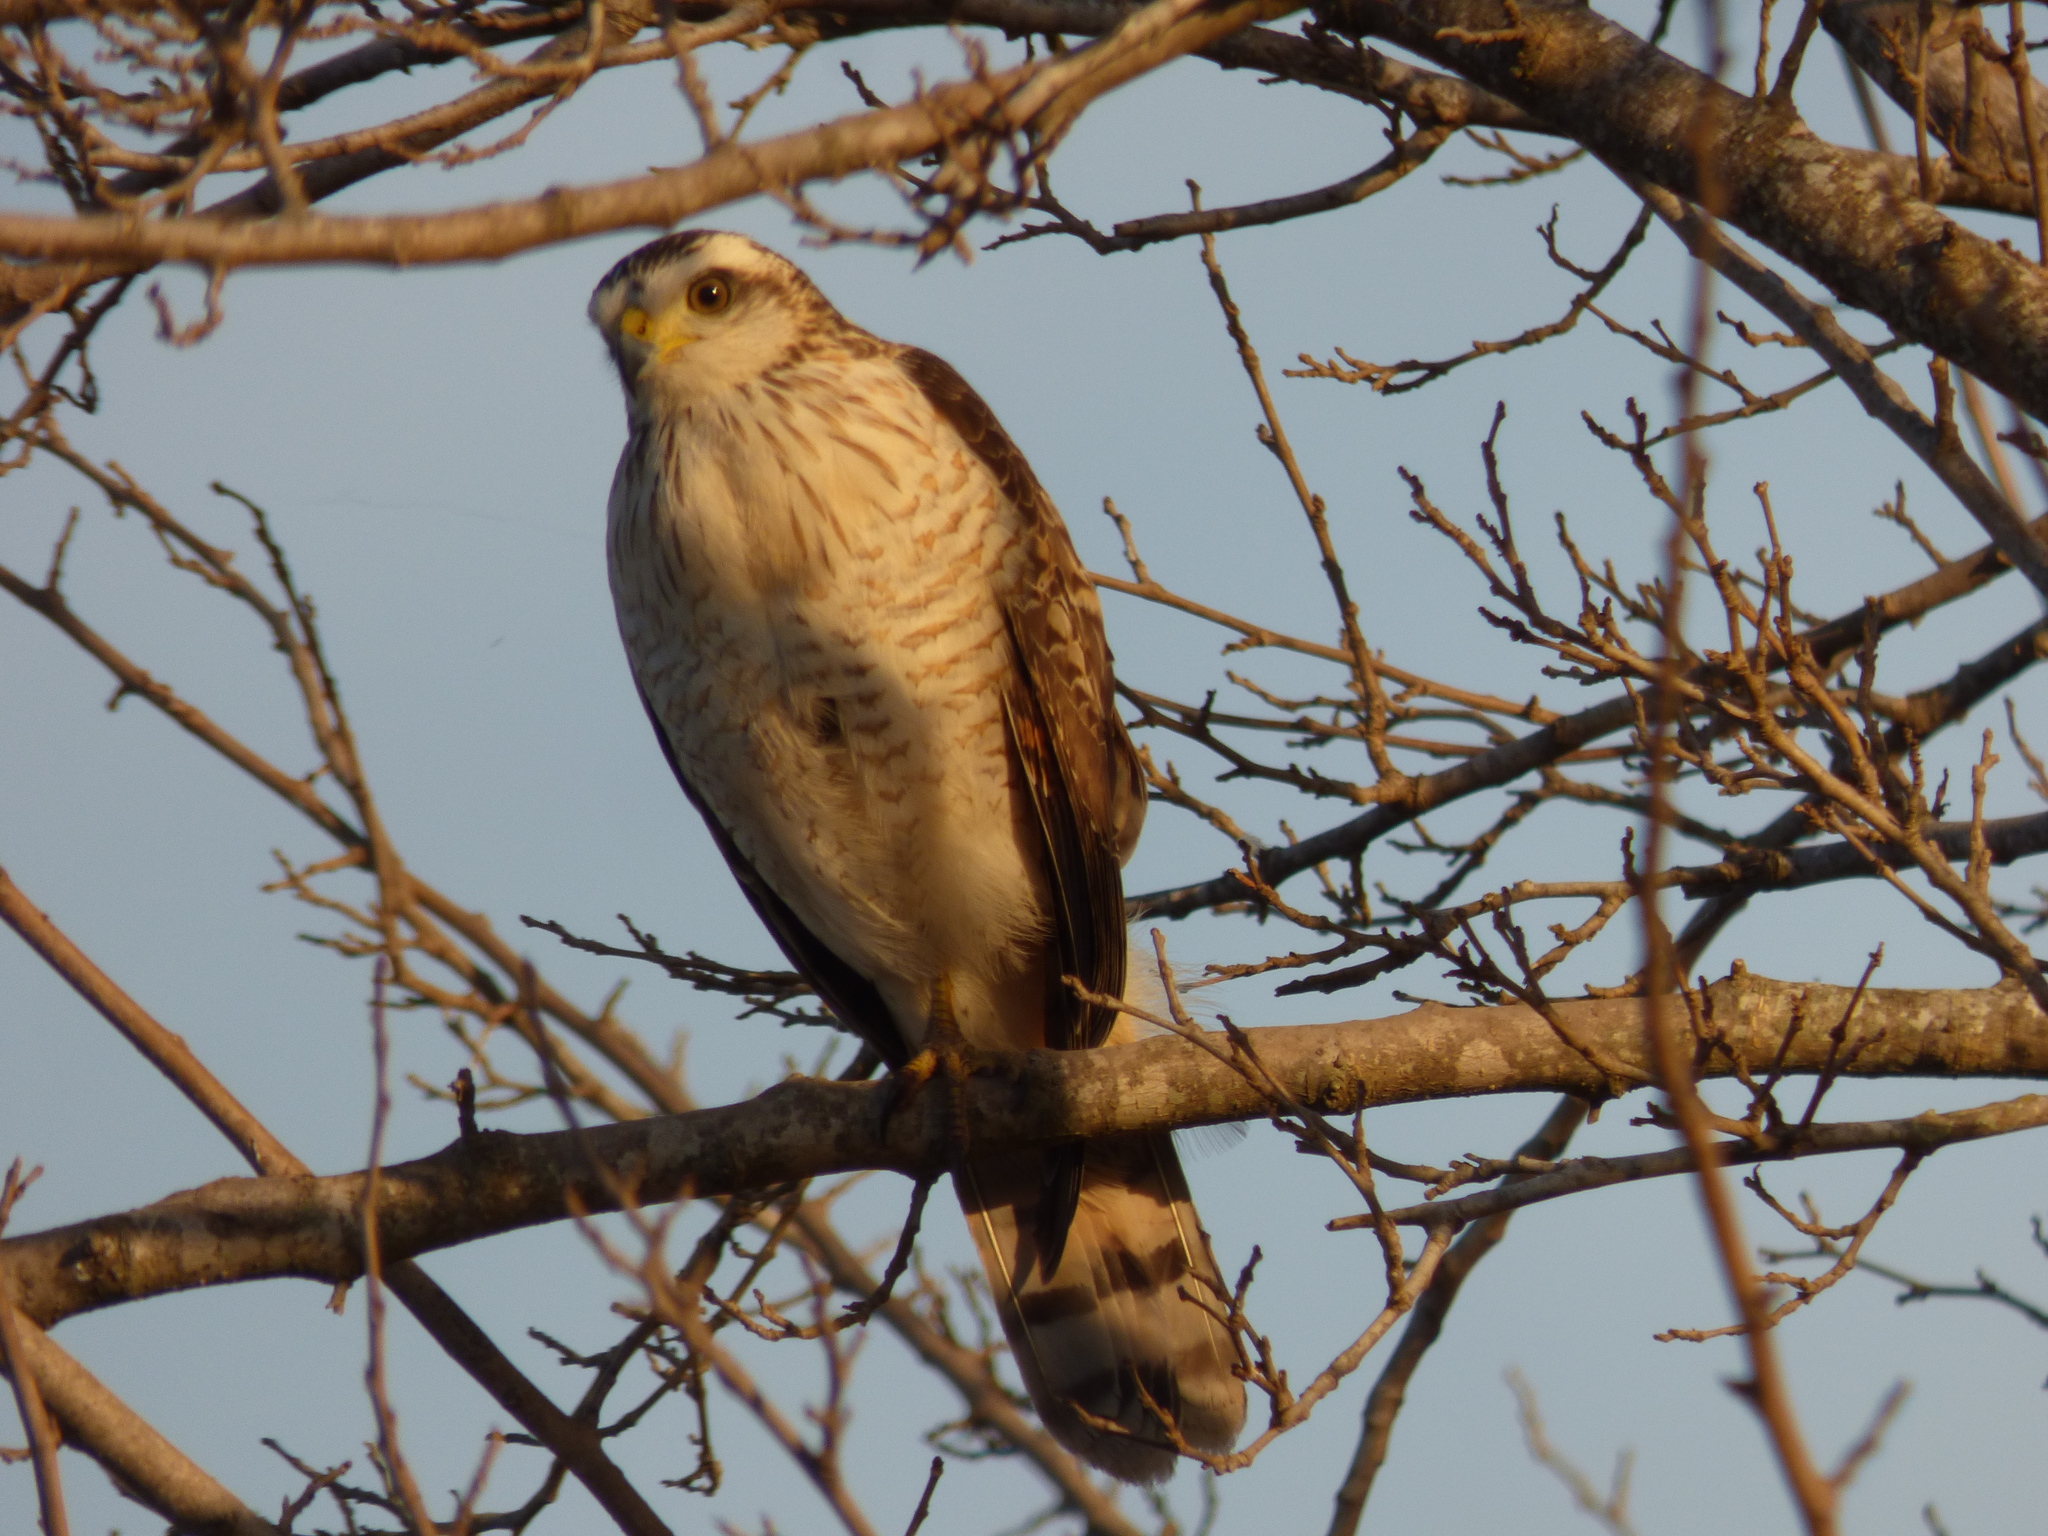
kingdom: Animalia
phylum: Chordata
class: Aves
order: Accipitriformes
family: Accipitridae
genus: Rupornis
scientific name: Rupornis magnirostris
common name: Roadside hawk
